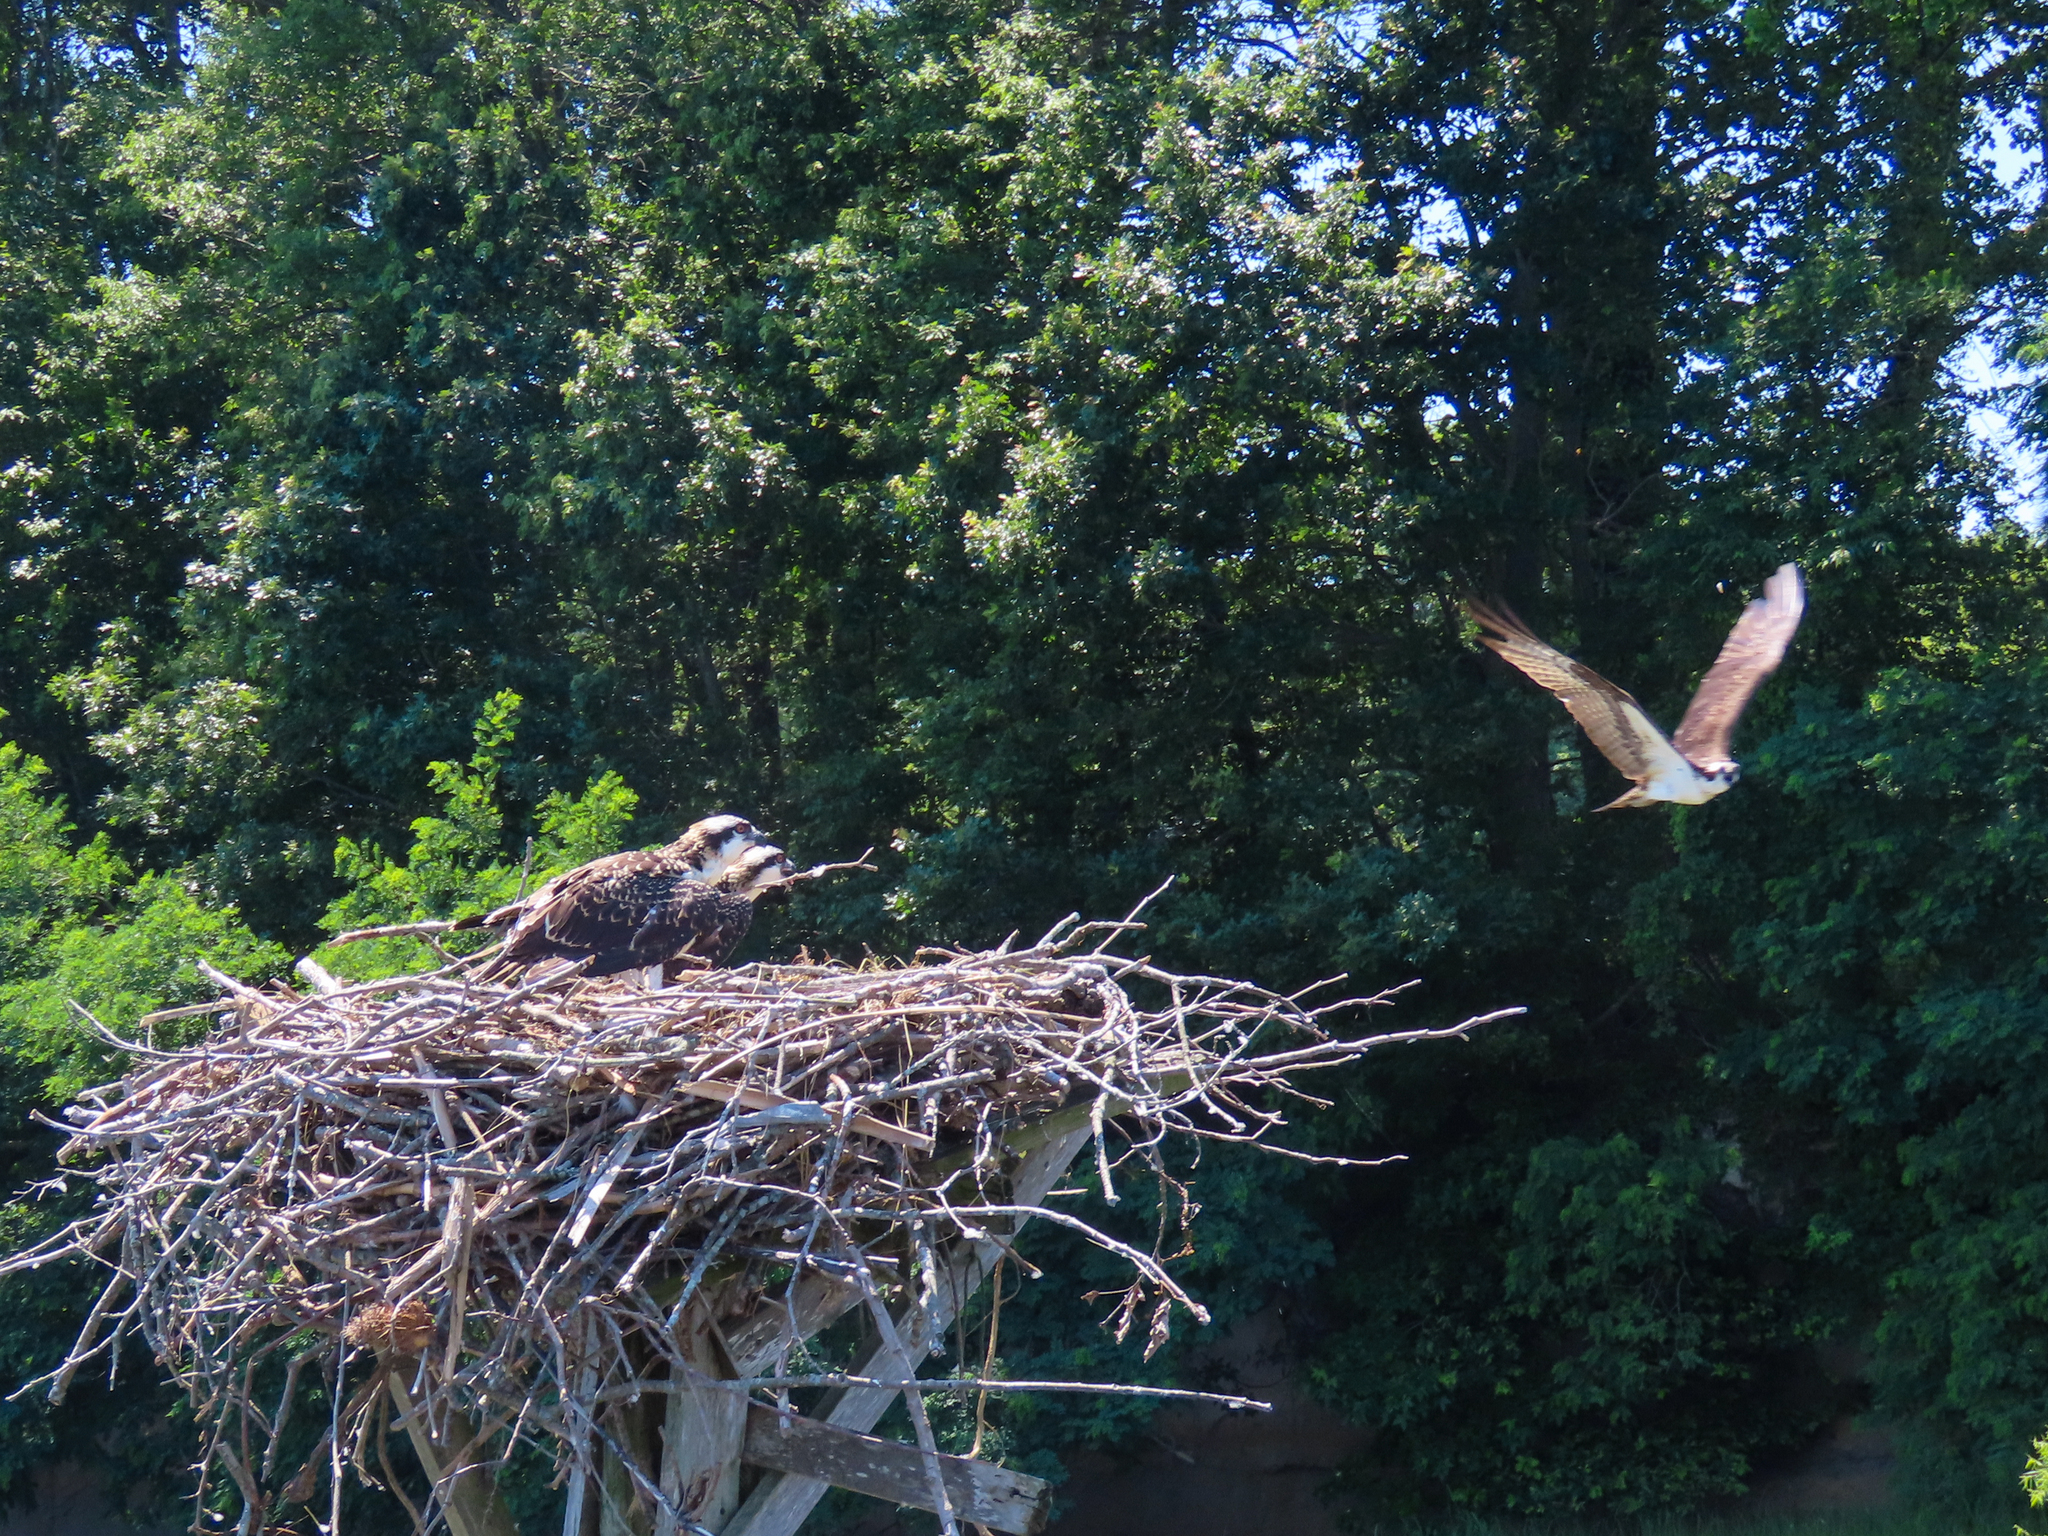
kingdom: Animalia
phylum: Chordata
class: Aves
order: Accipitriformes
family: Pandionidae
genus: Pandion
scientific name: Pandion haliaetus
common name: Osprey
